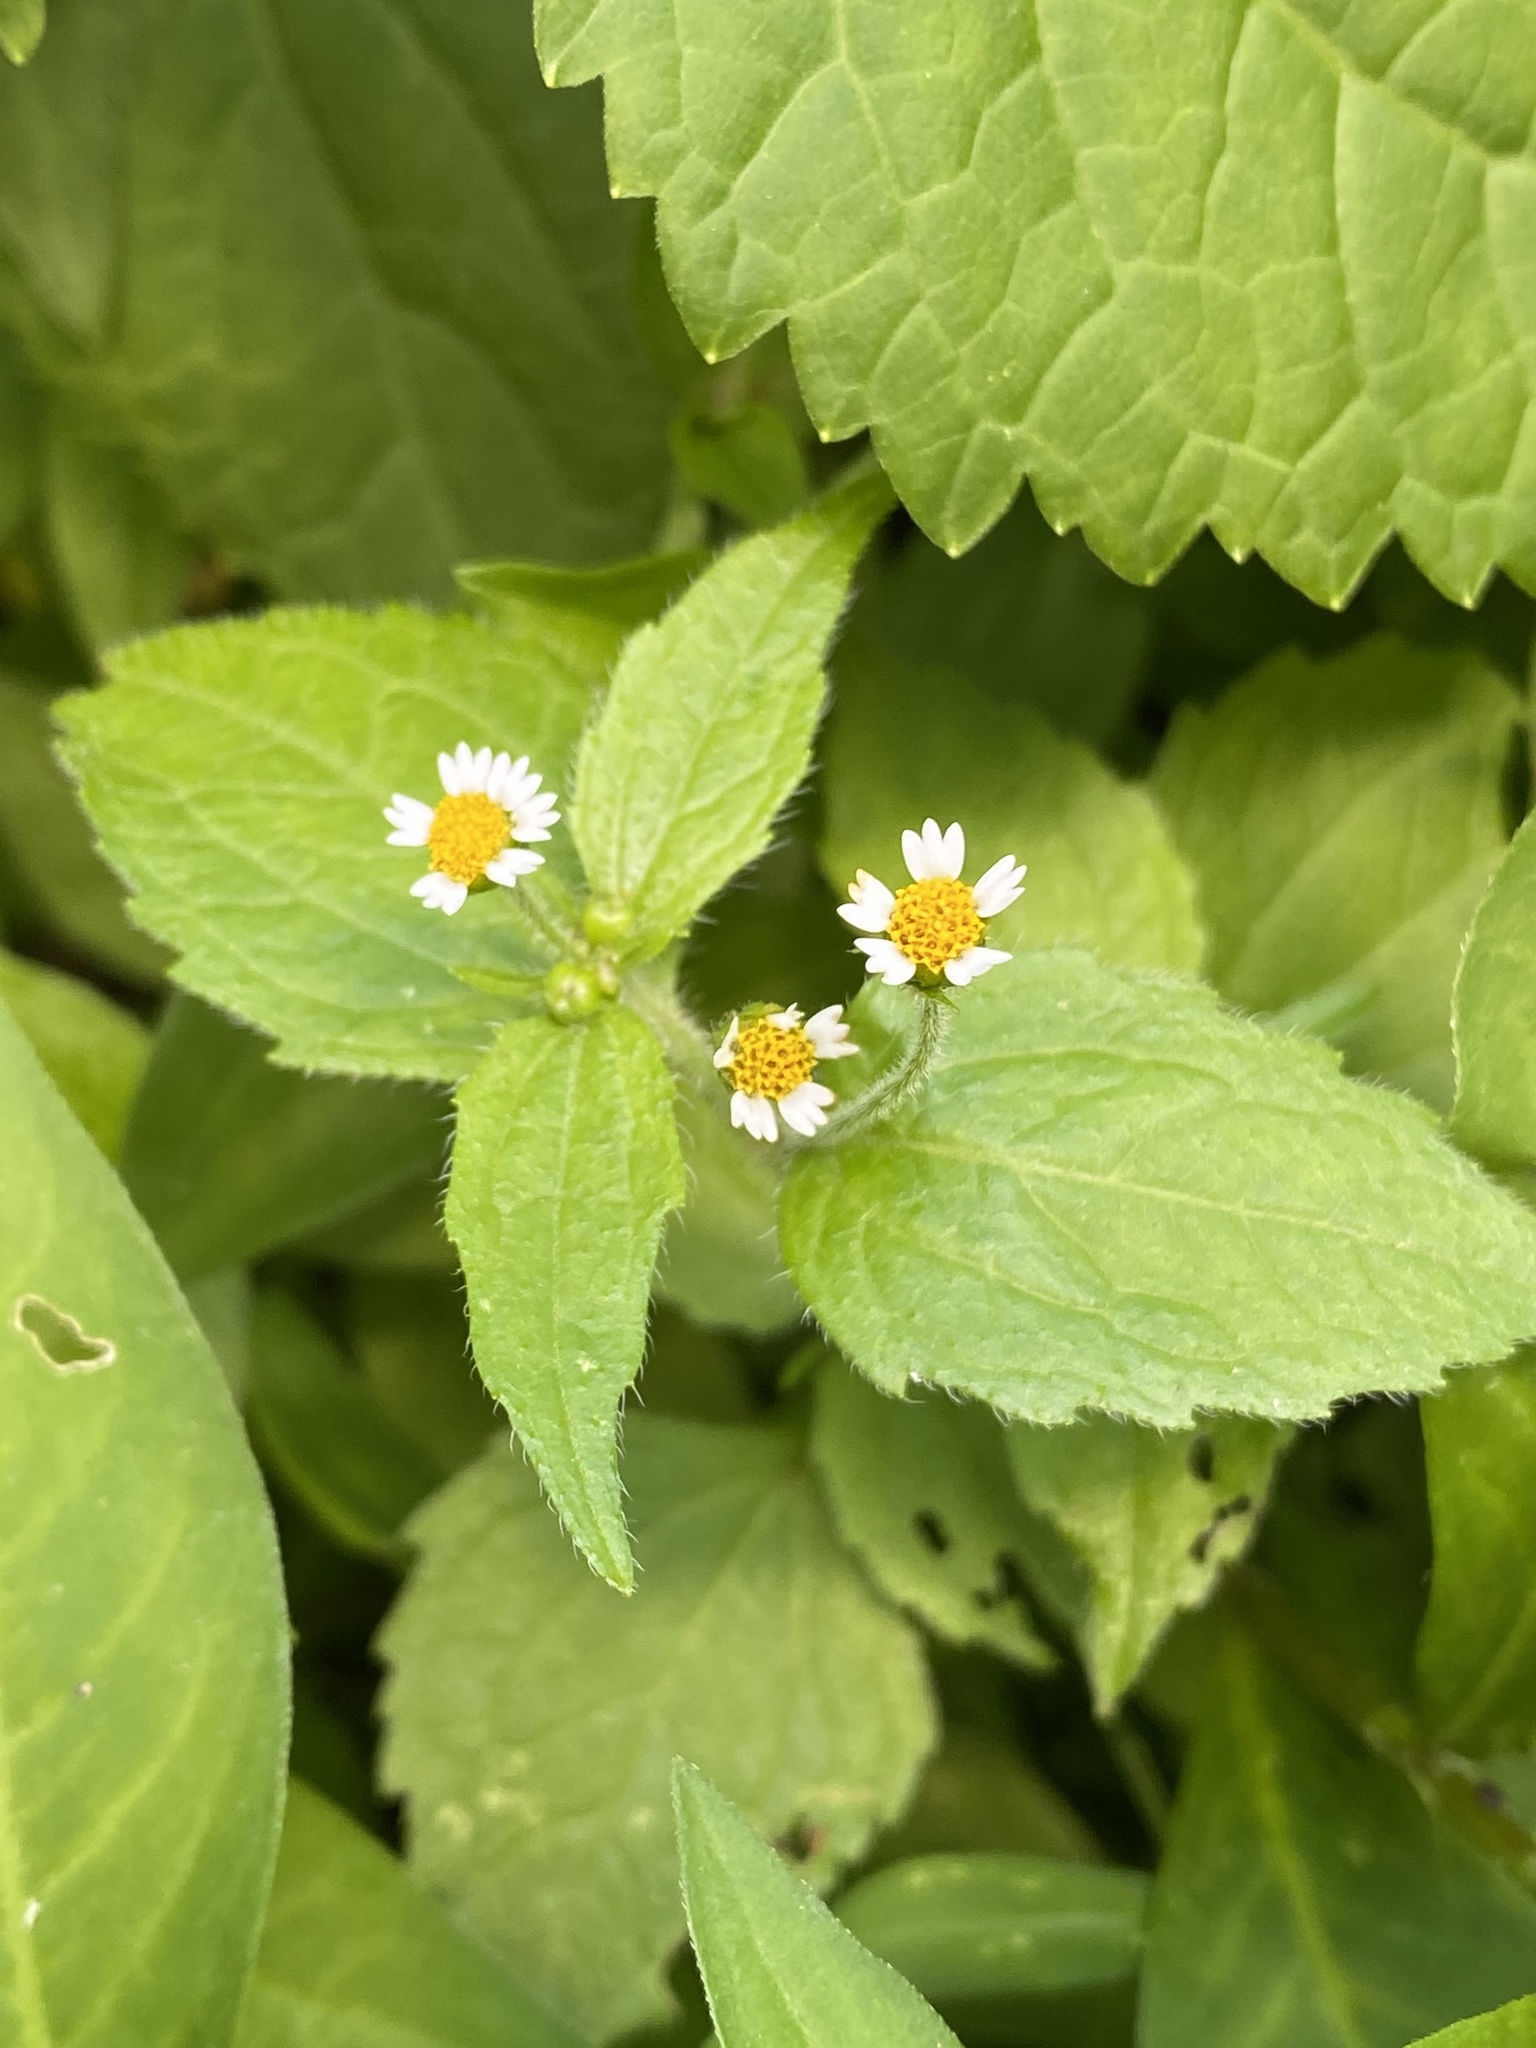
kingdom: Plantae
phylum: Tracheophyta
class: Magnoliopsida
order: Asterales
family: Asteraceae
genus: Galinsoga
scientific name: Galinsoga quadriradiata
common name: Shaggy soldier
